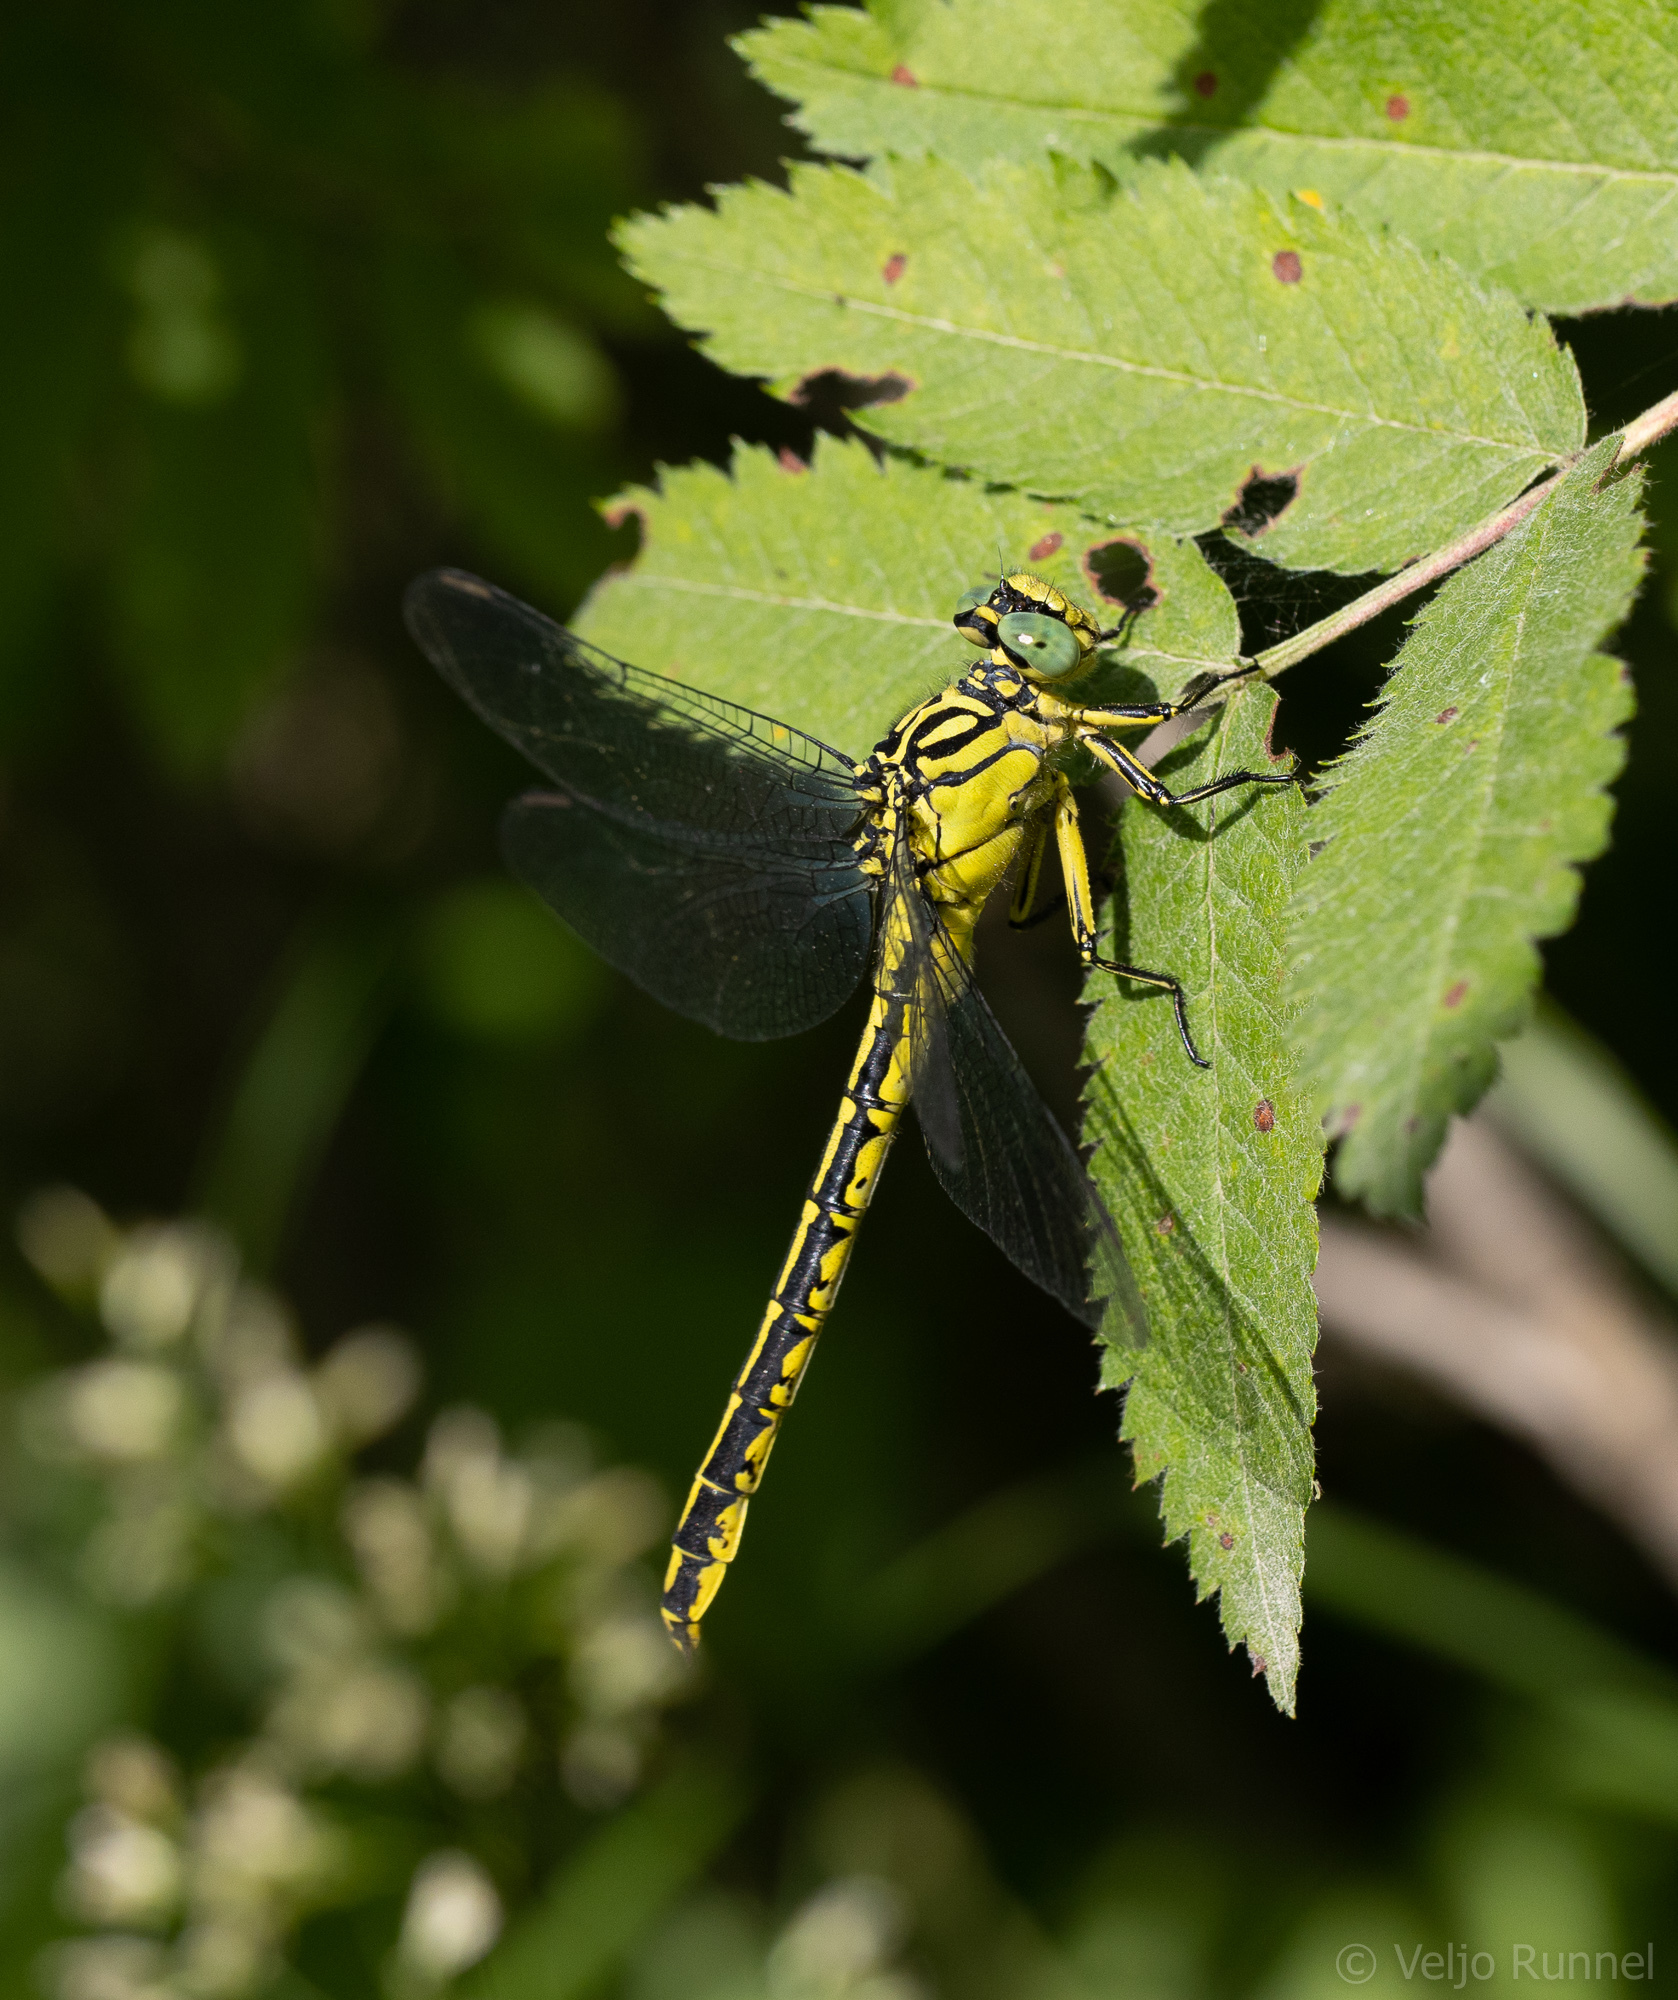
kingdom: Animalia
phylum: Arthropoda
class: Insecta
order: Odonata
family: Gomphidae
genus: Stylurus
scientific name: Stylurus flavipes
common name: River clubtail
